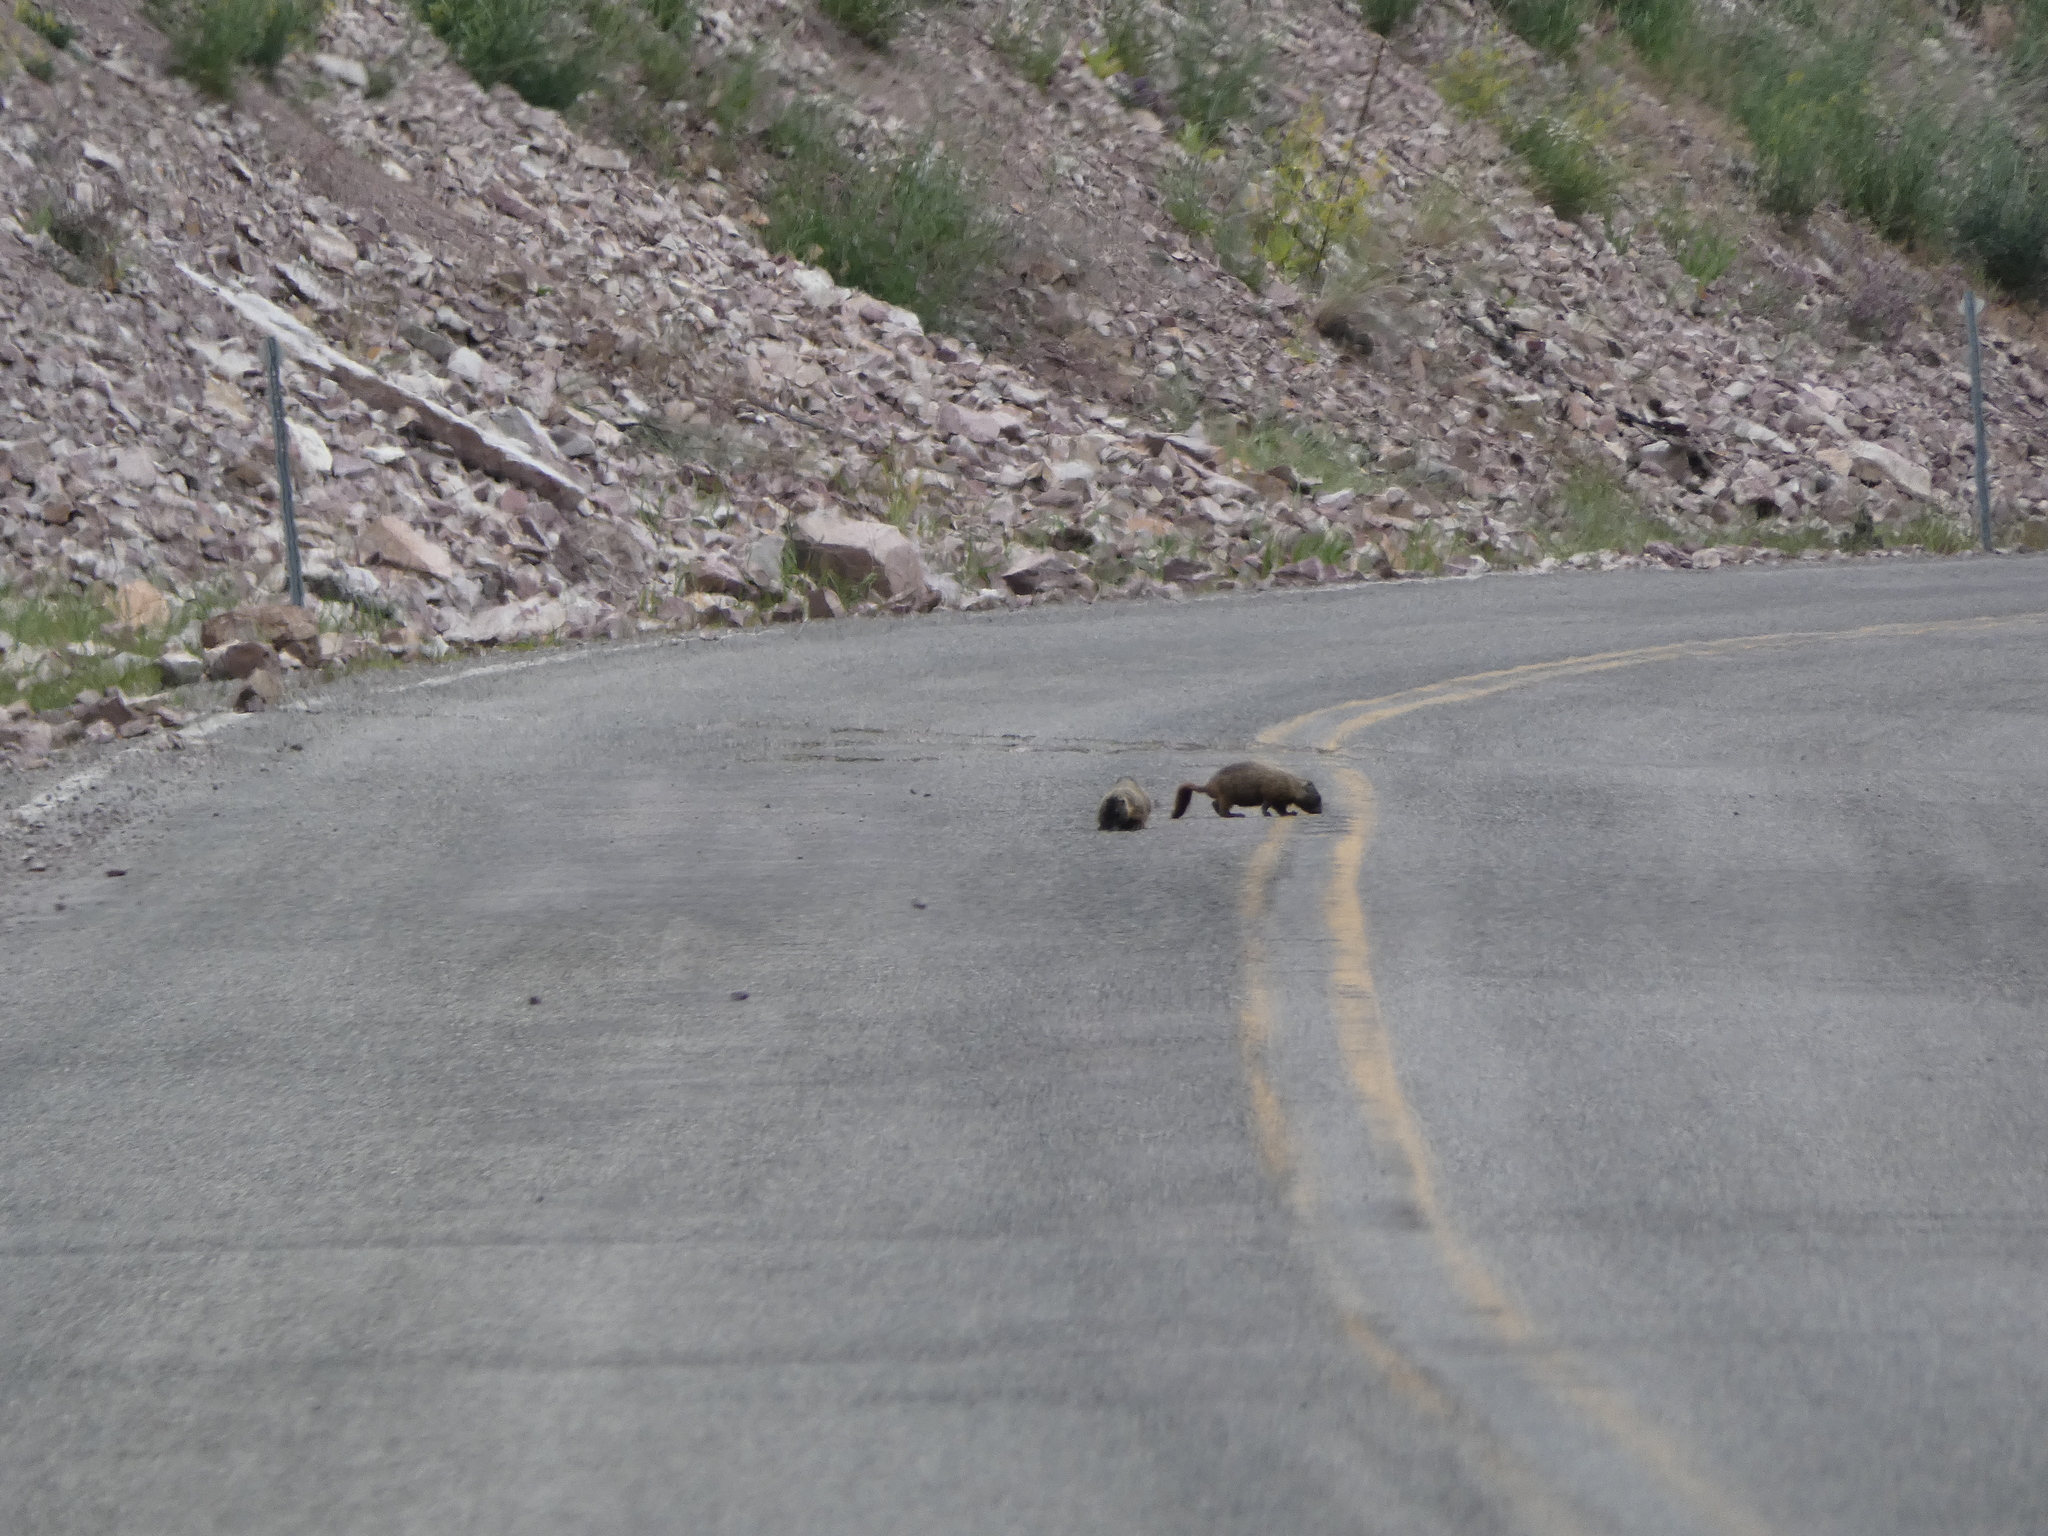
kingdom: Animalia
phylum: Chordata
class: Mammalia
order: Rodentia
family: Sciuridae
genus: Marmota
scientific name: Marmota flaviventris
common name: Yellow-bellied marmot
